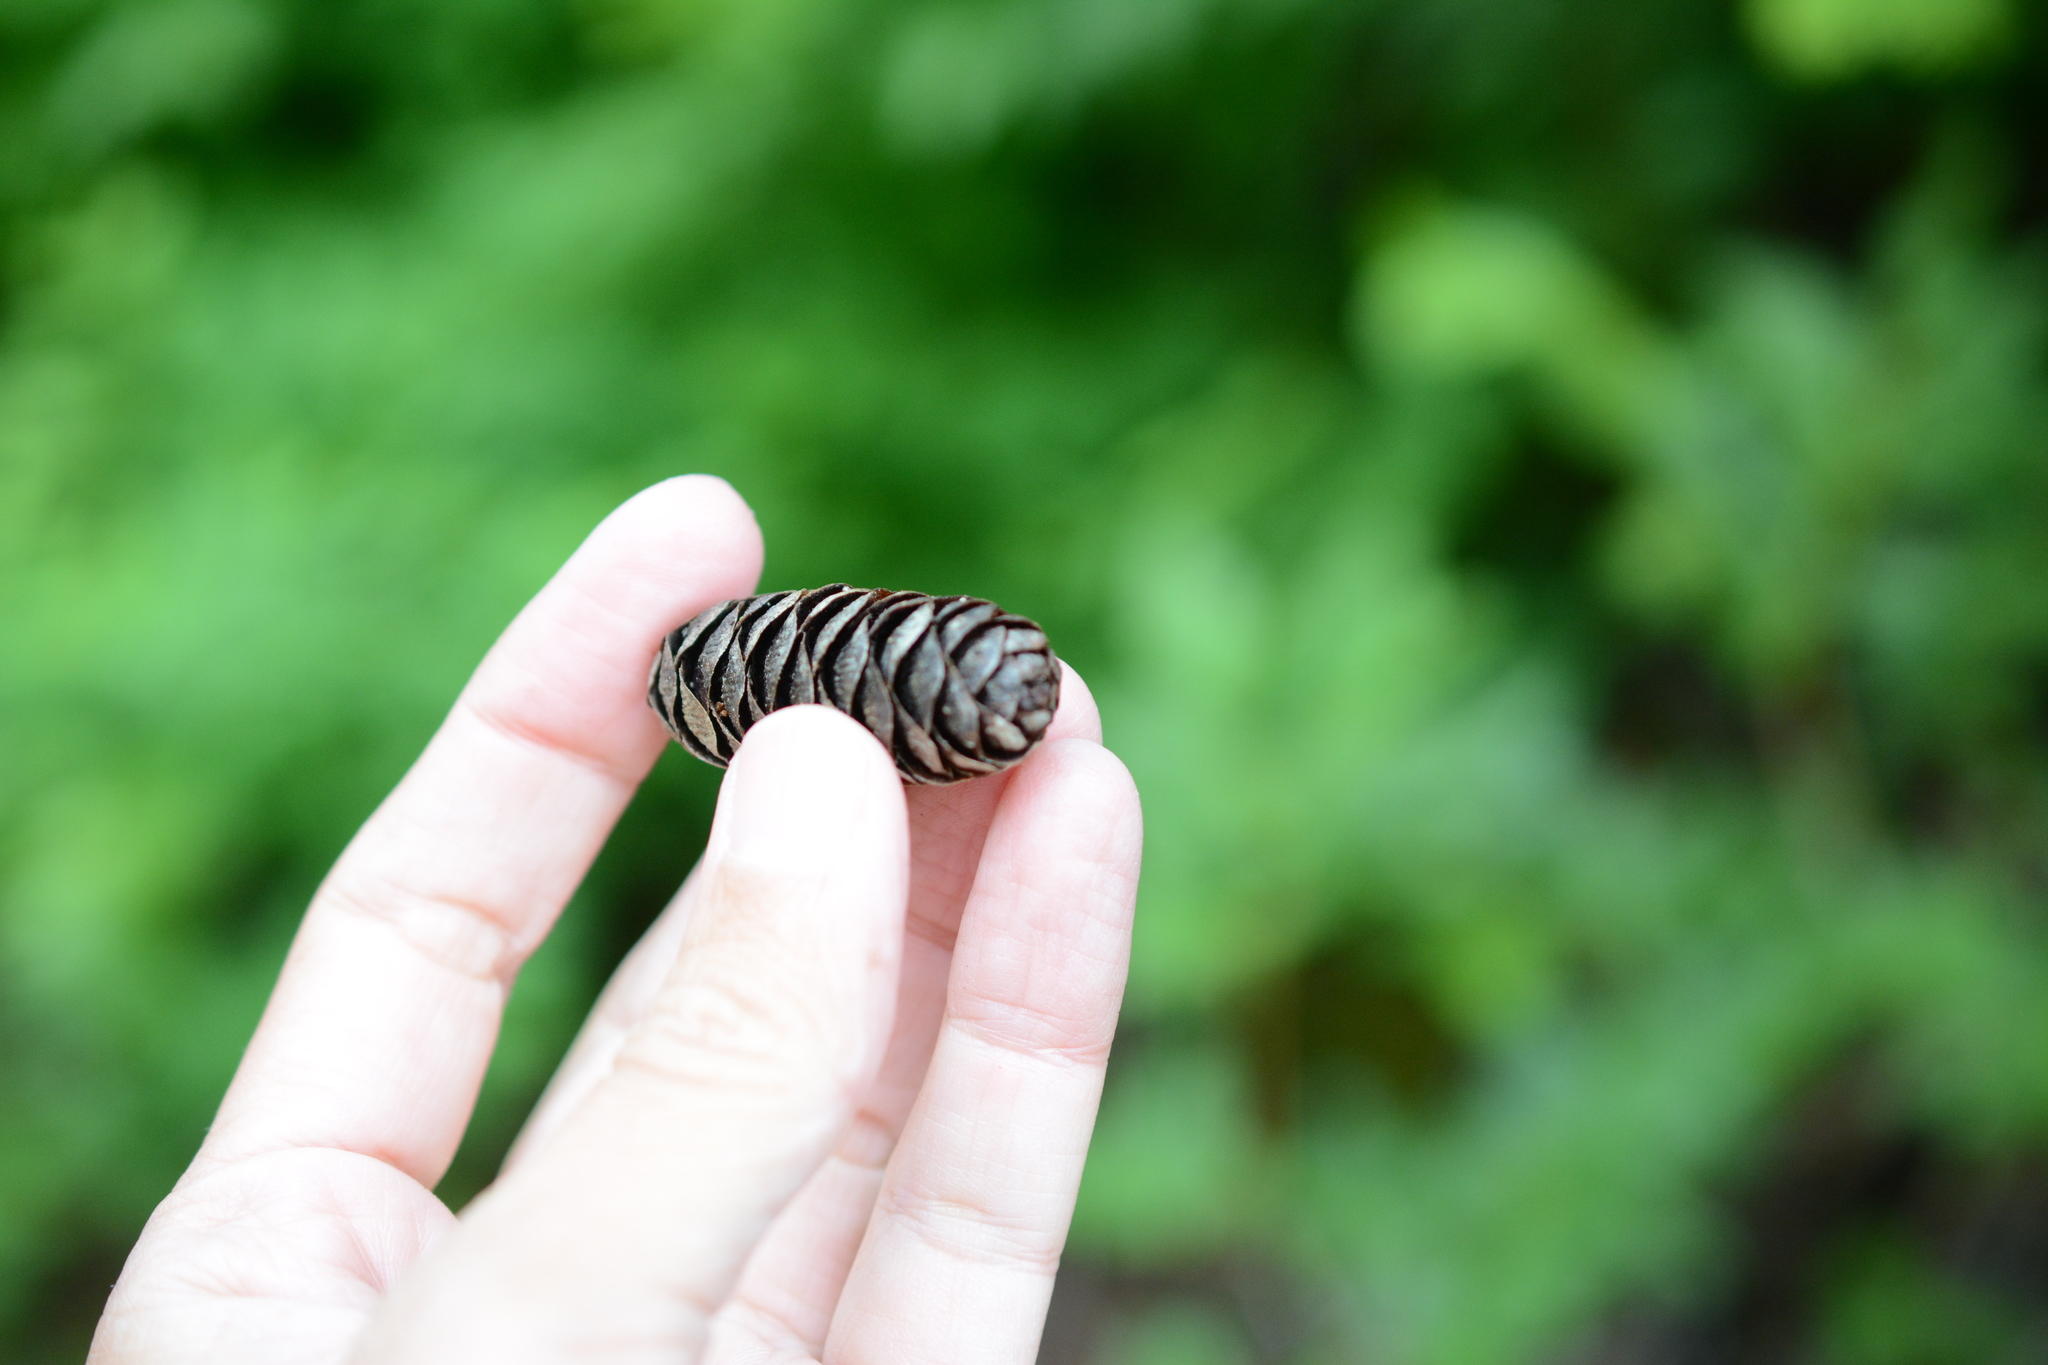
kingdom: Plantae
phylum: Tracheophyta
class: Pinopsida
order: Pinales
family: Pinaceae
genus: Tsuga
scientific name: Tsuga mertensiana
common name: Mountain hemlock
